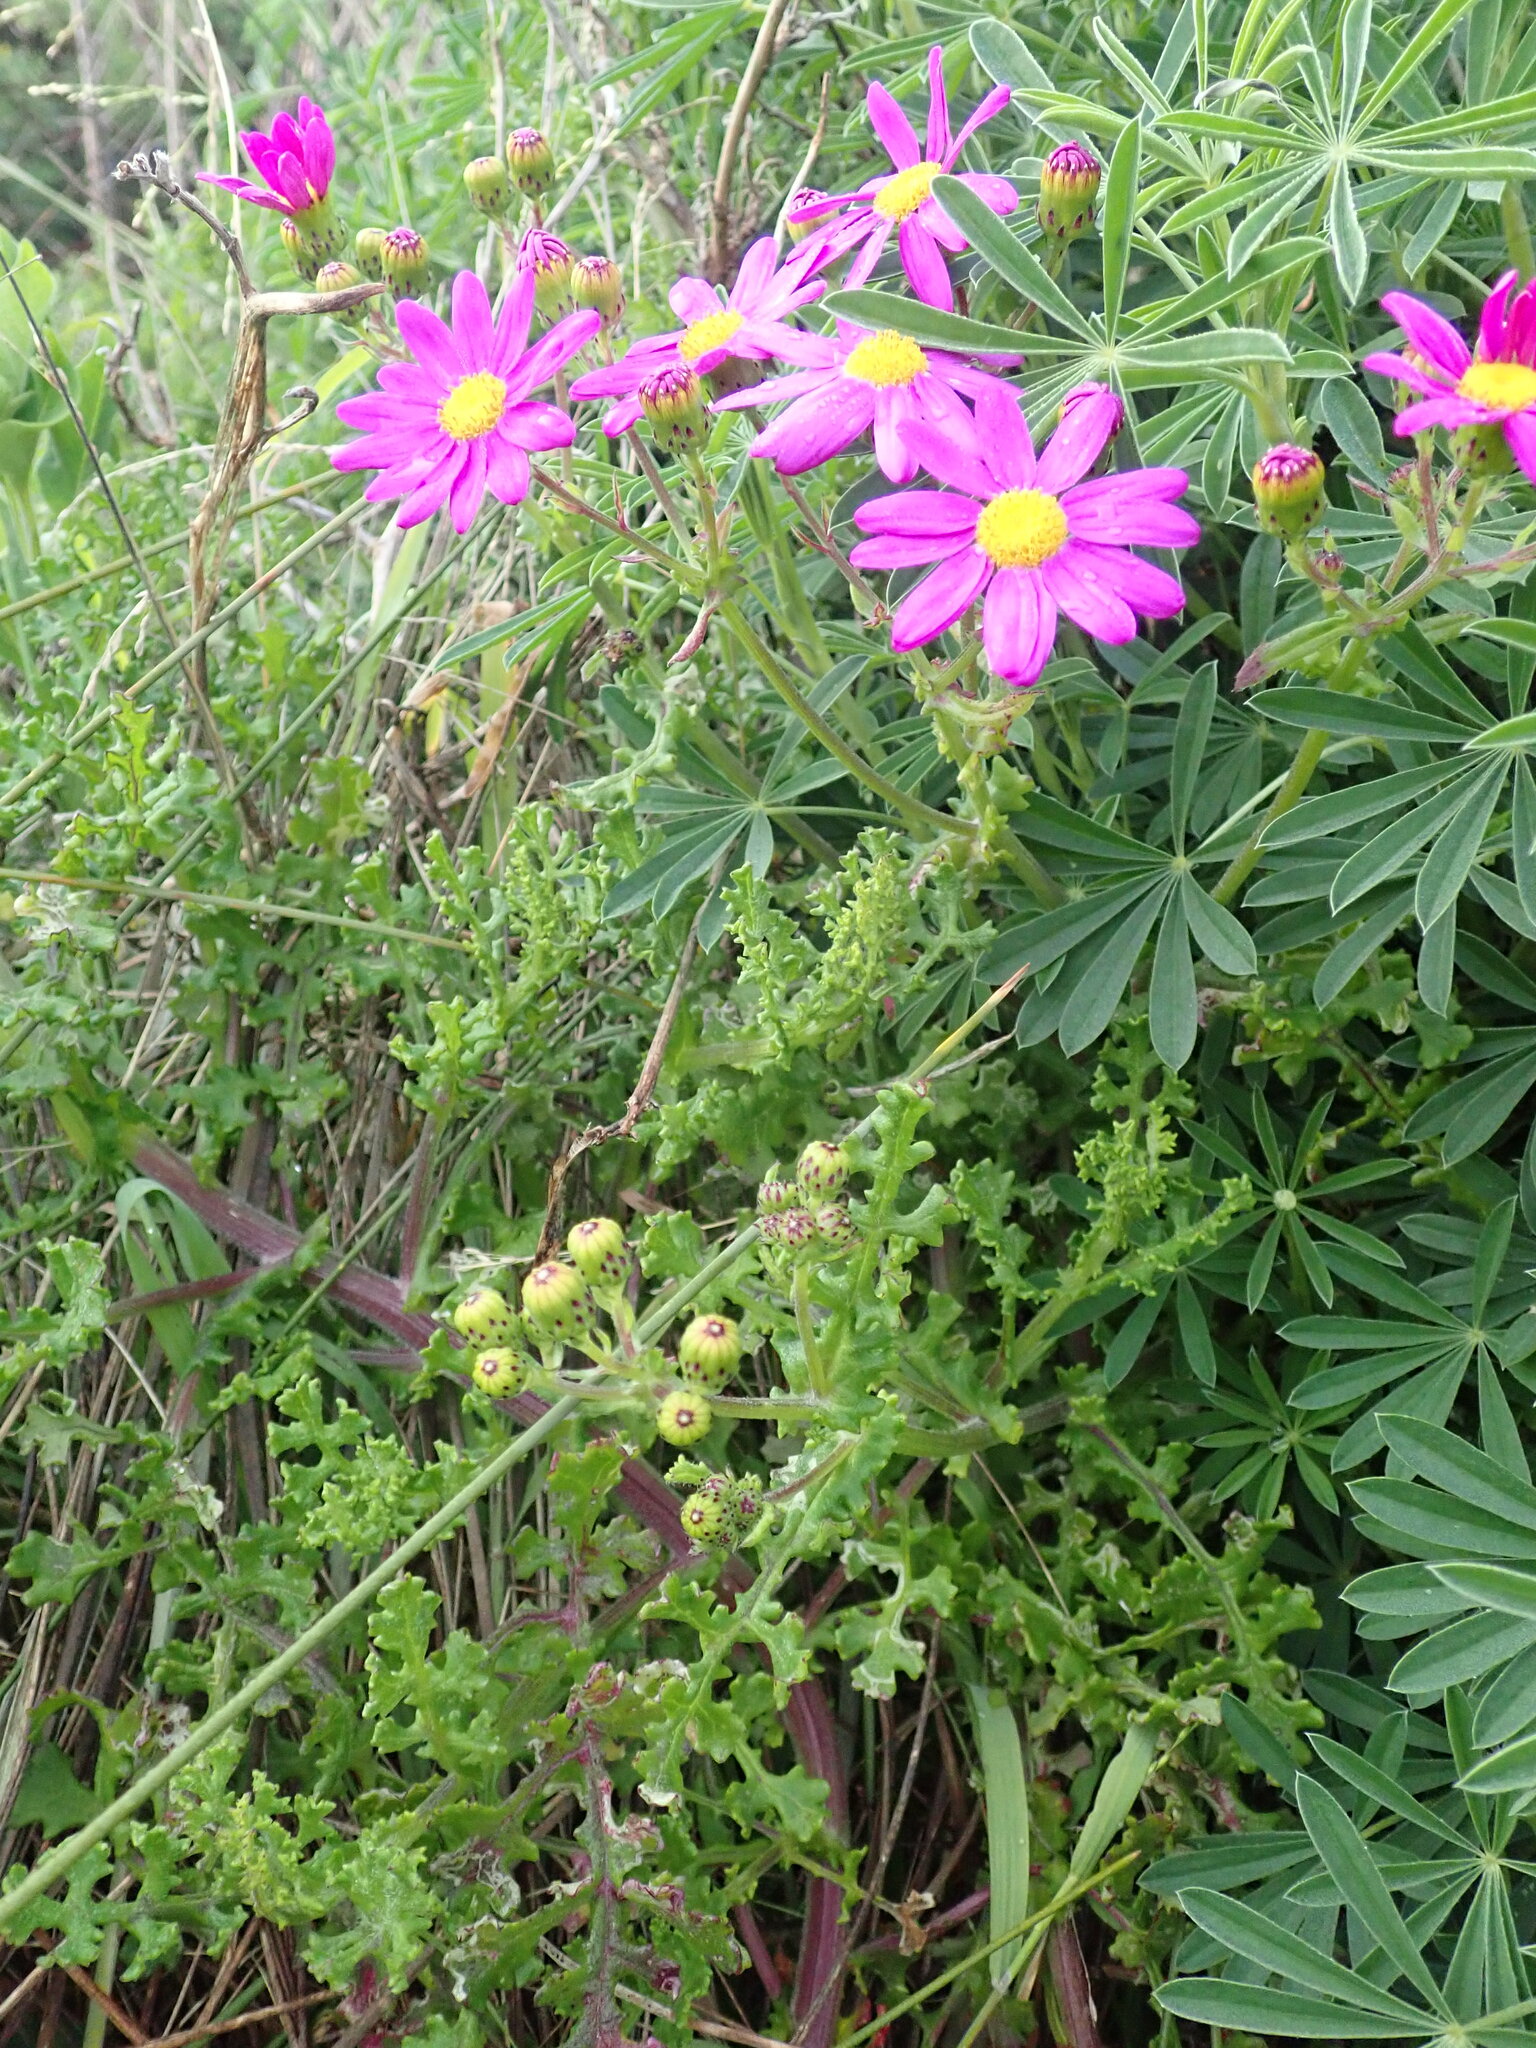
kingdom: Plantae
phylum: Tracheophyta
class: Magnoliopsida
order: Asterales
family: Asteraceae
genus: Senecio
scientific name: Senecio elegans
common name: Purple groundsel
